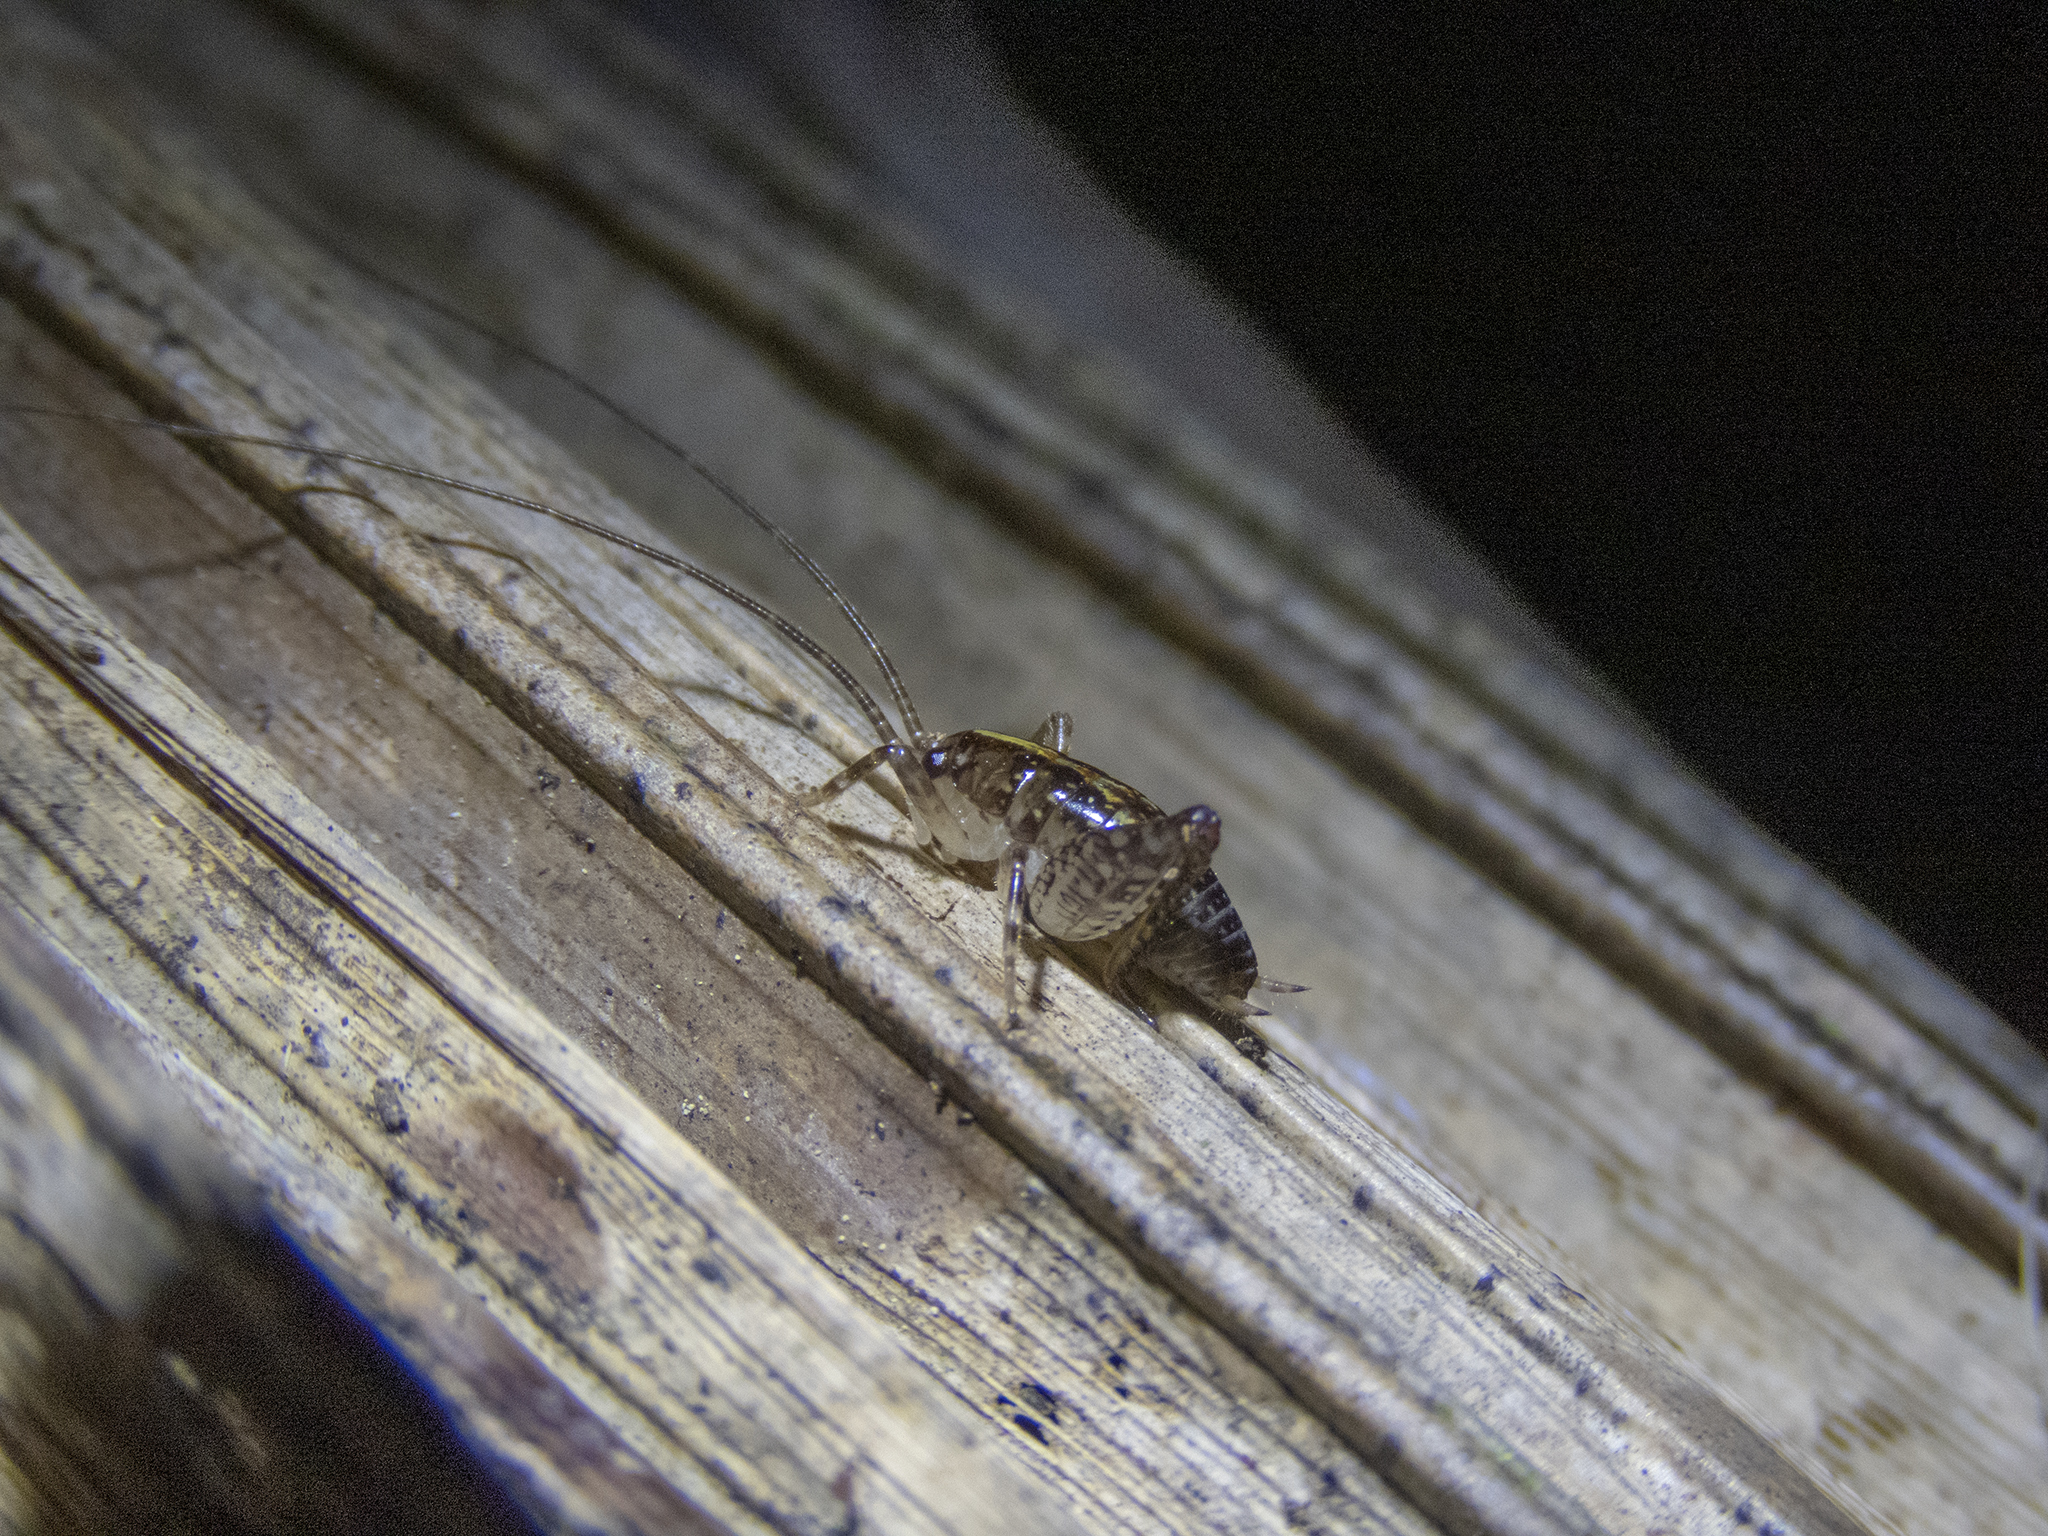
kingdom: Animalia
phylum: Arthropoda
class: Insecta
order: Orthoptera
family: Rhaphidophoridae
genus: Talitropsis
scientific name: Talitropsis sedilloti
